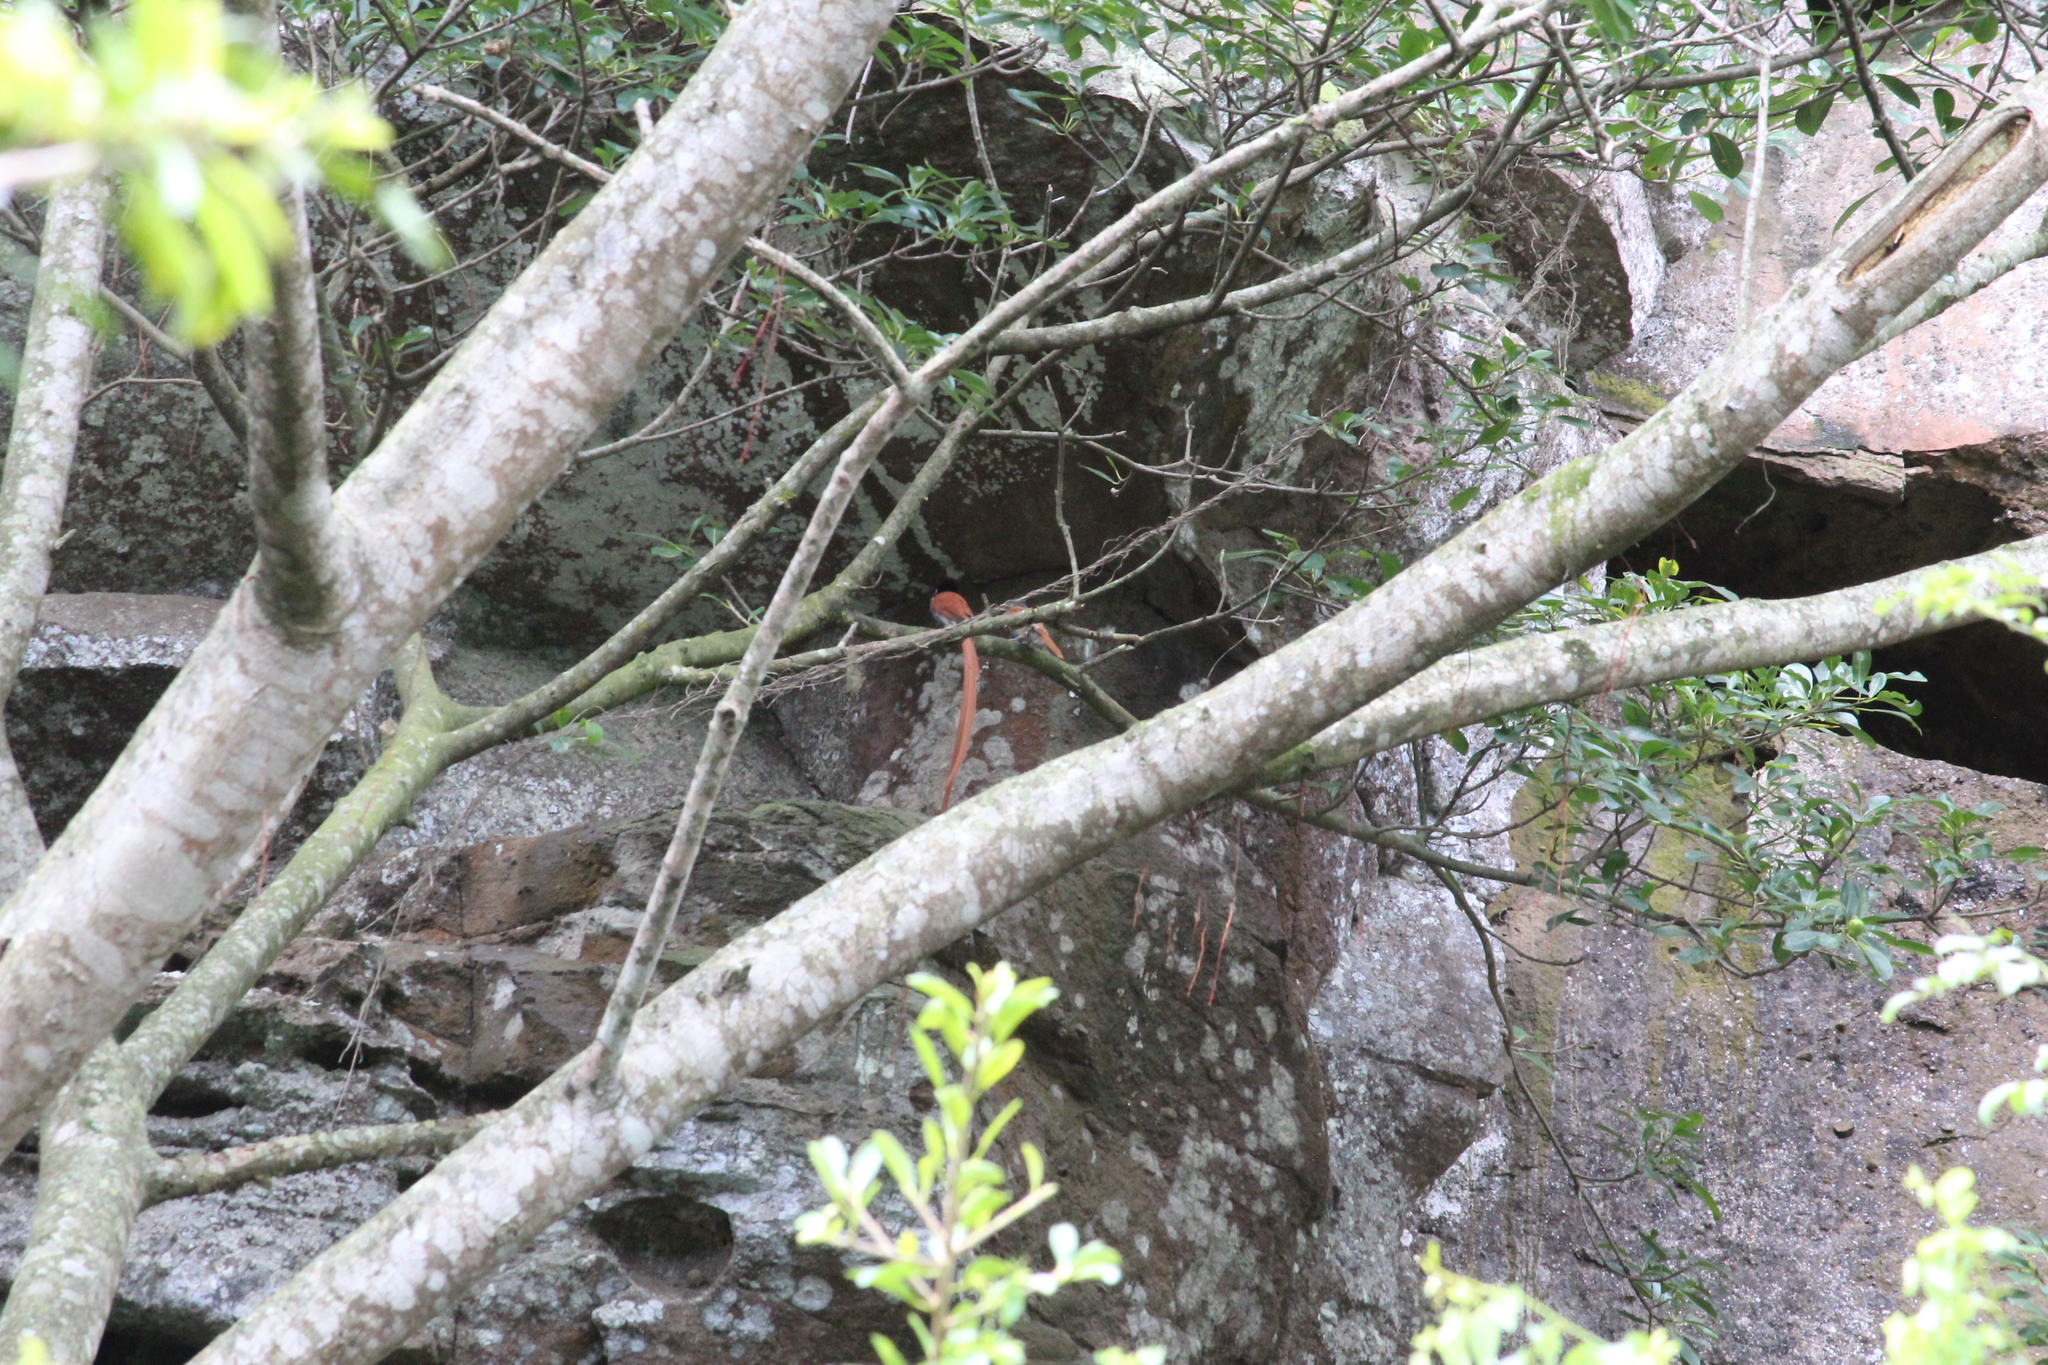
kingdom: Animalia
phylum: Chordata
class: Aves
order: Passeriformes
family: Monarchidae
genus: Terpsiphone
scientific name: Terpsiphone viridis
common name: African paradise flycatcher
